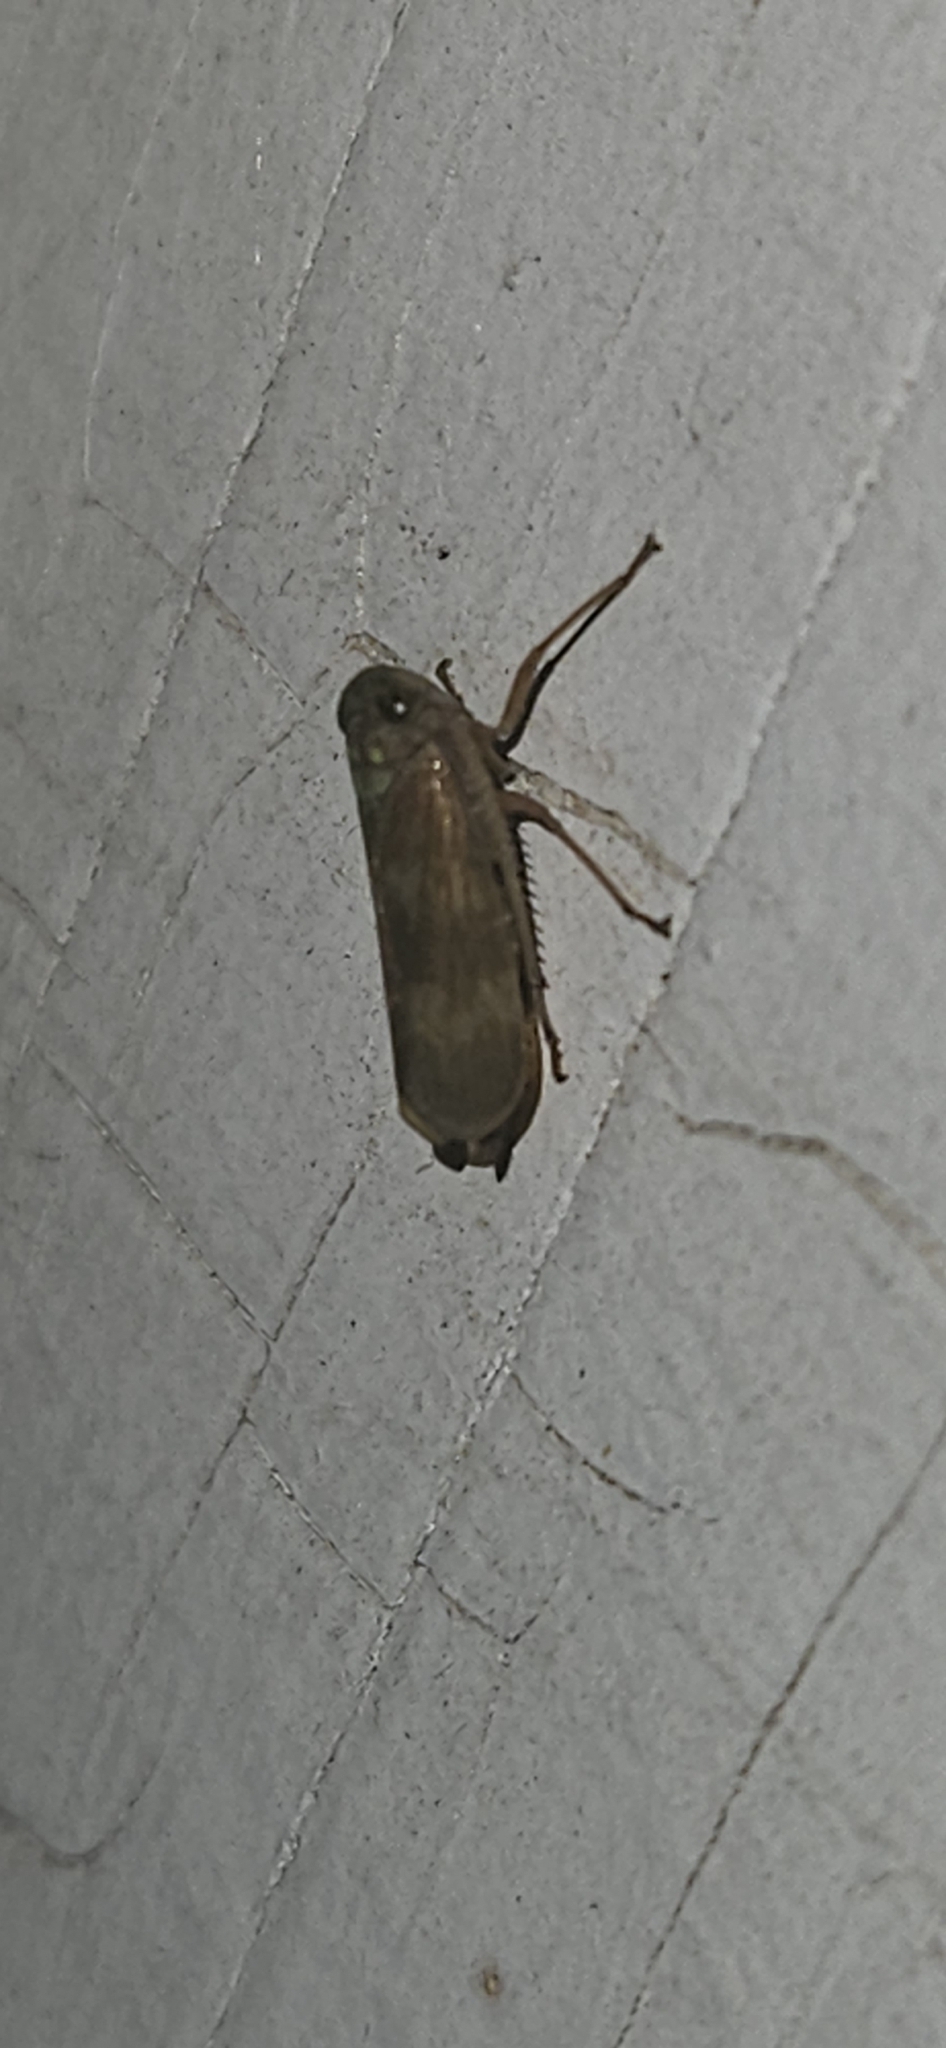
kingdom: Animalia
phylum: Arthropoda
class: Insecta
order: Hemiptera
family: Cicadellidae
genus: Jikradia
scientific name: Jikradia olitoria
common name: Coppery leafhopper
